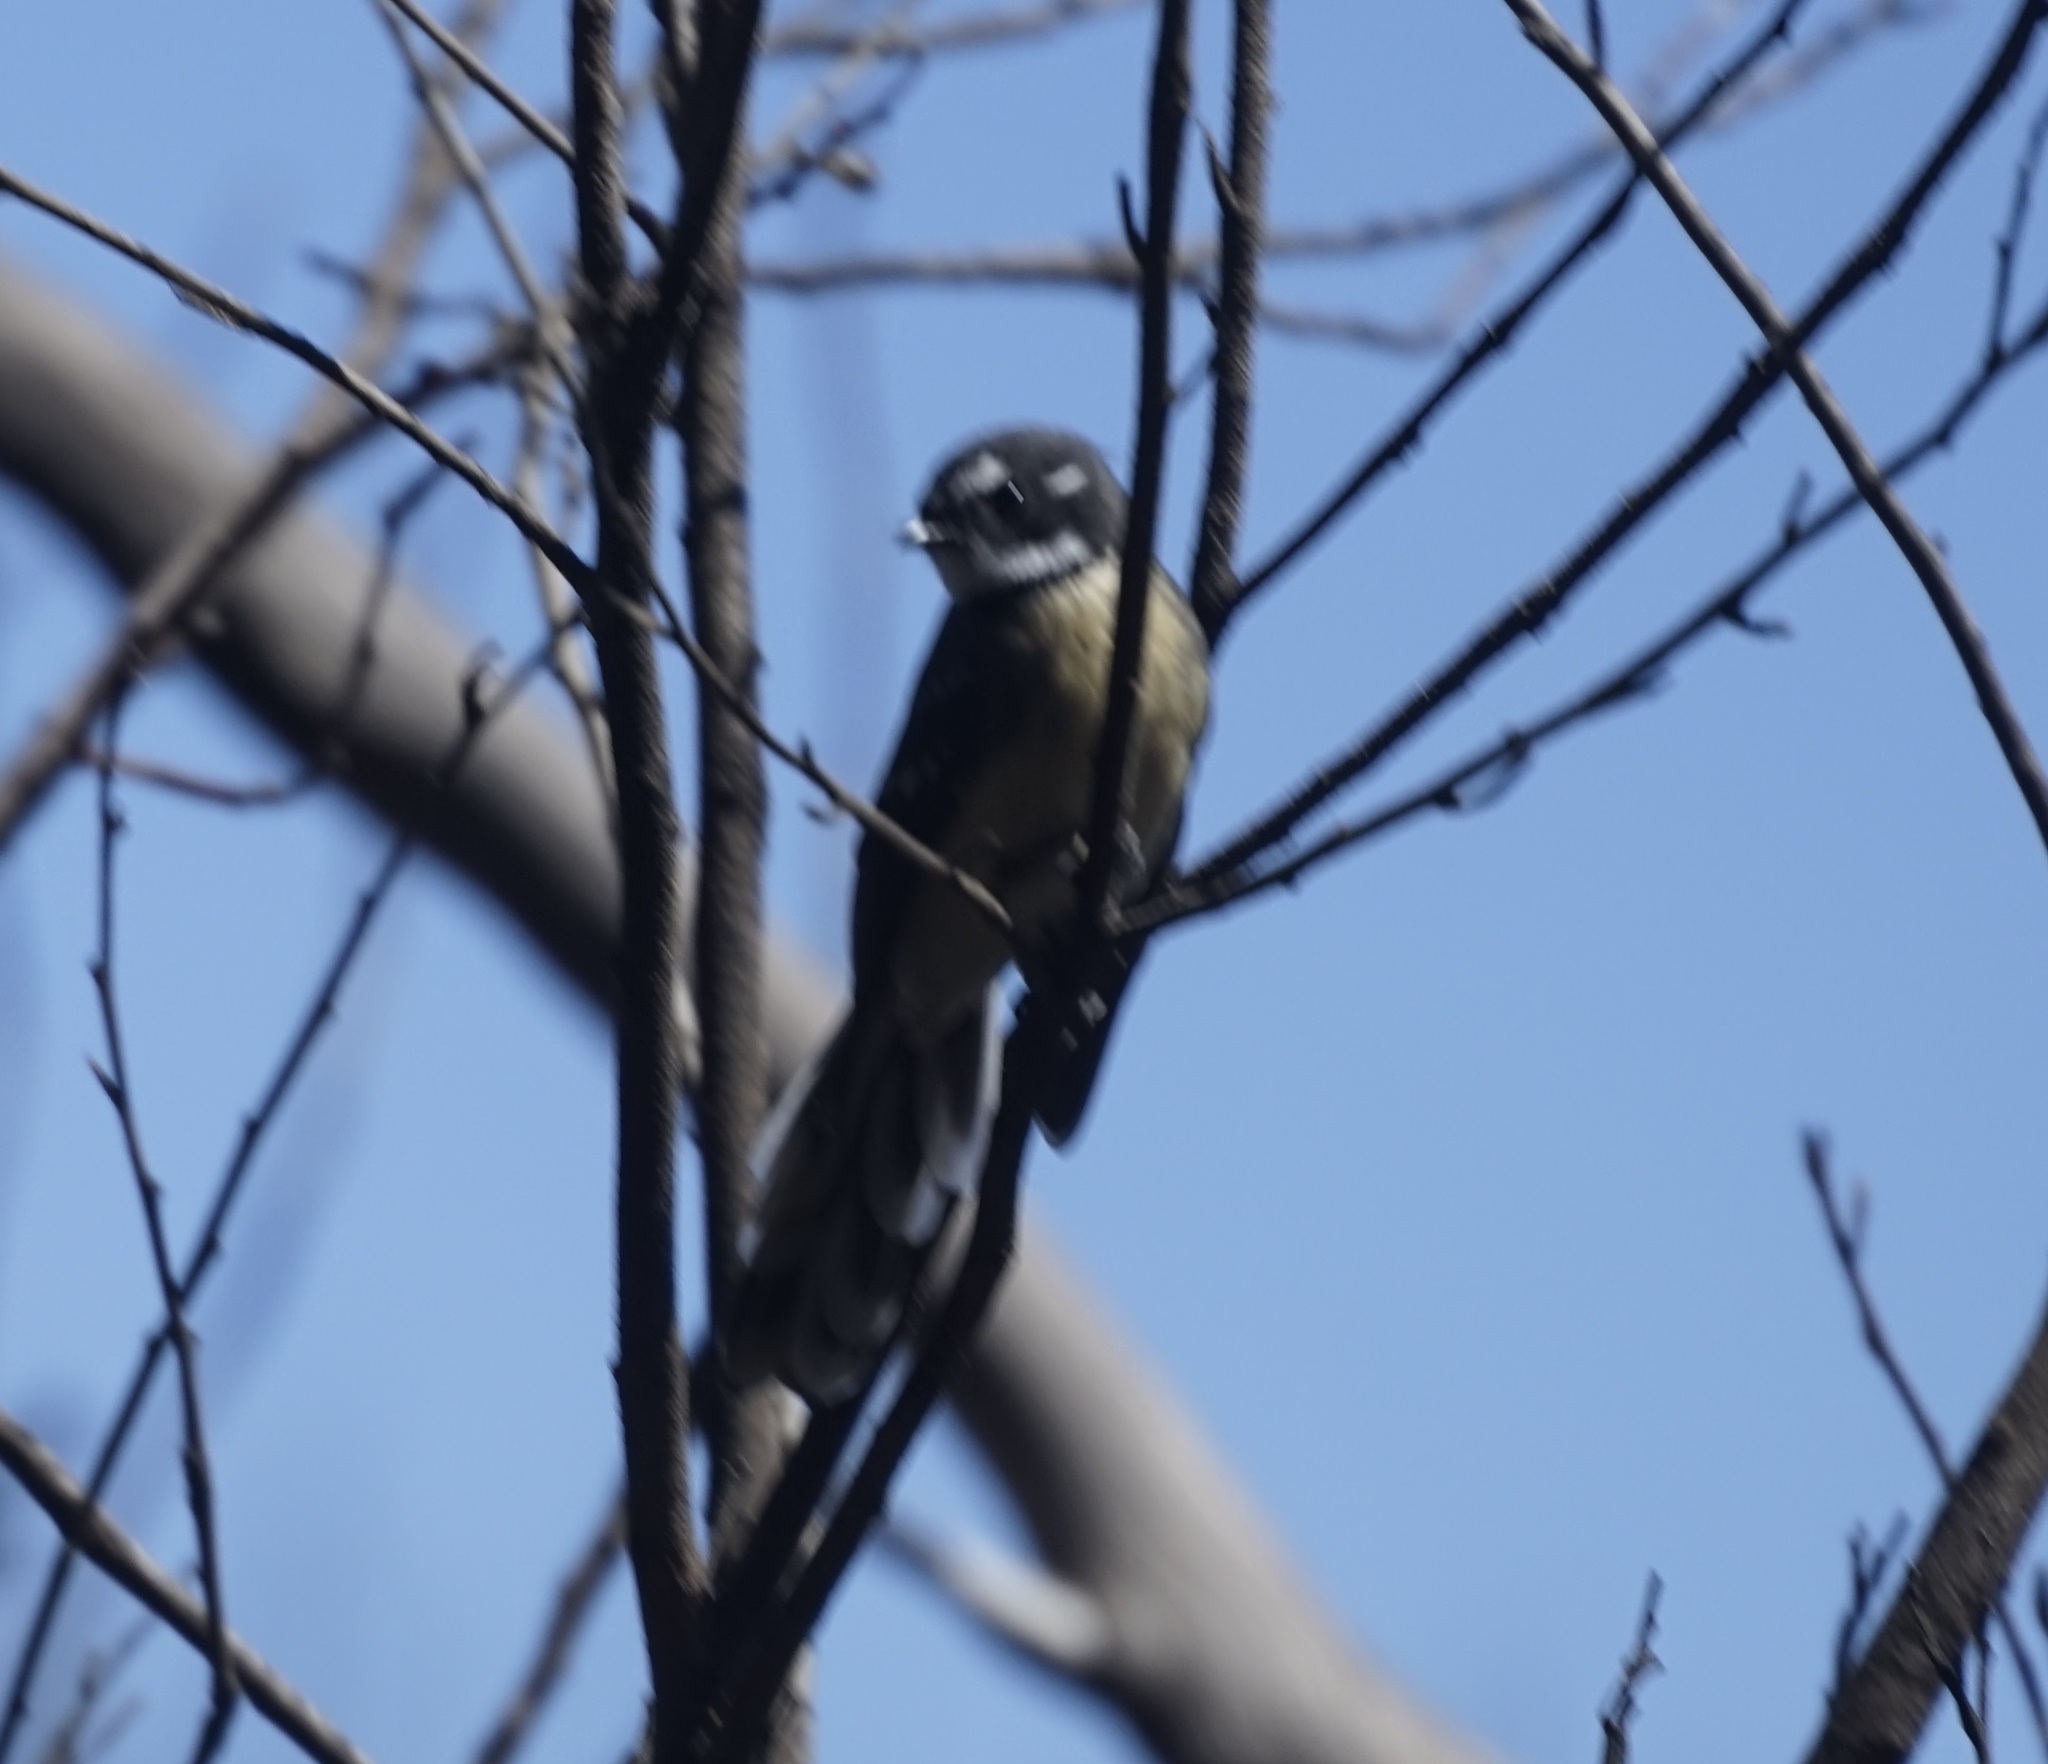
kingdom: Animalia
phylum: Chordata
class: Aves
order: Passeriformes
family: Rhipiduridae
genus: Rhipidura
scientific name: Rhipidura albiscapa
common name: Grey fantail
